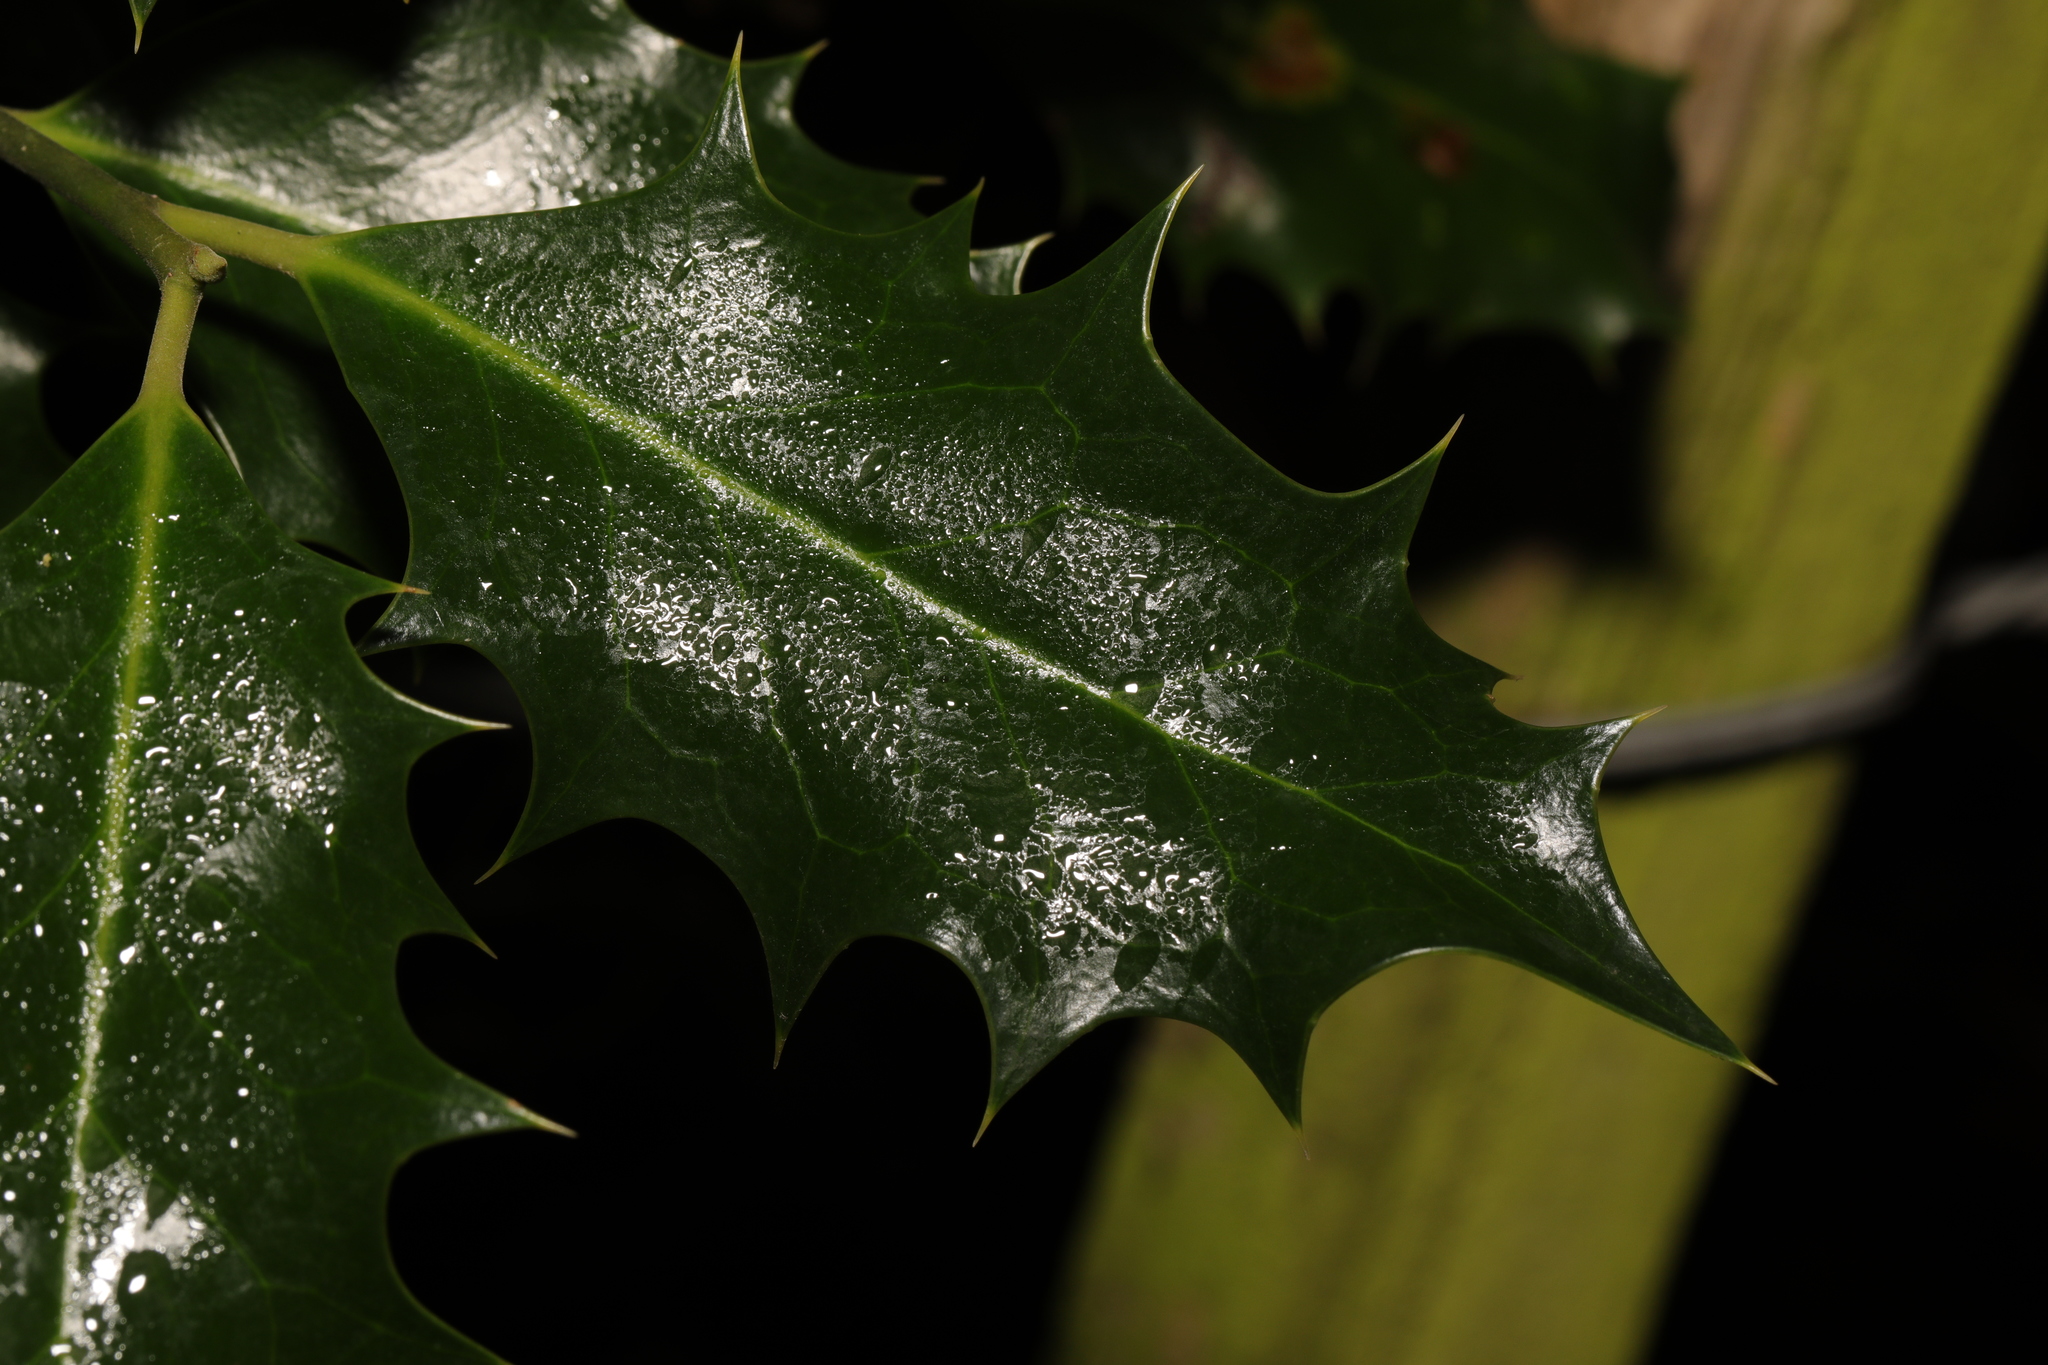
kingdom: Plantae
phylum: Tracheophyta
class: Magnoliopsida
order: Aquifoliales
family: Aquifoliaceae
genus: Ilex
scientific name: Ilex aquifolium
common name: English holly
